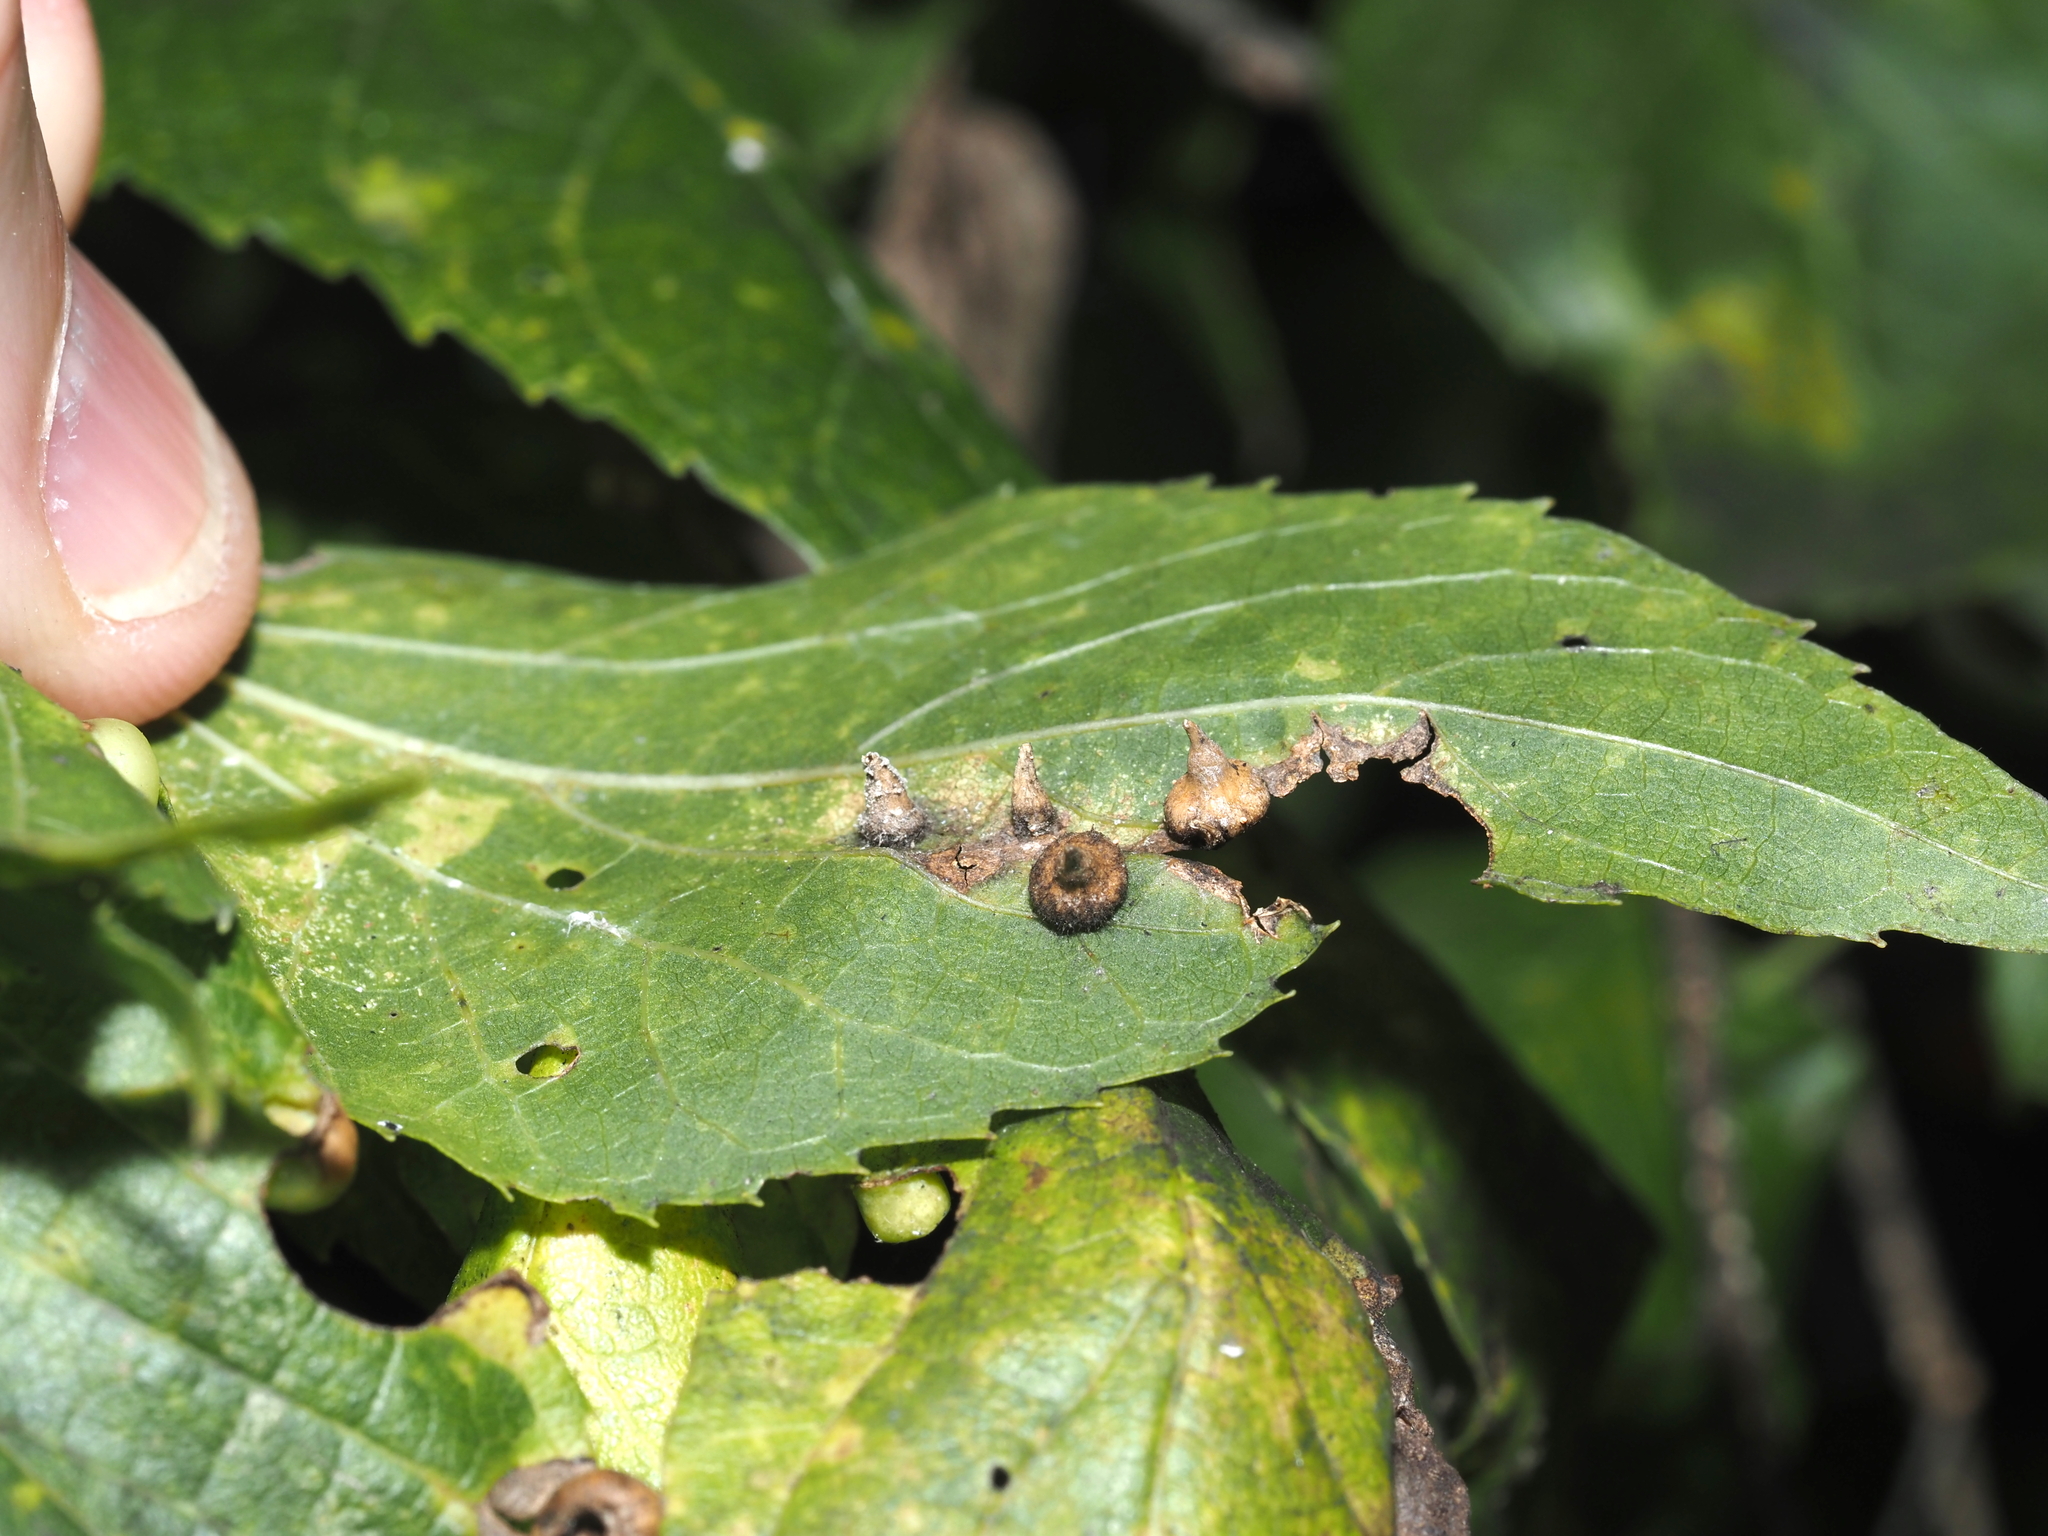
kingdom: Animalia
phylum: Arthropoda
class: Insecta
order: Diptera
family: Cecidomyiidae
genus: Celticecis
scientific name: Celticecis spiniformis
